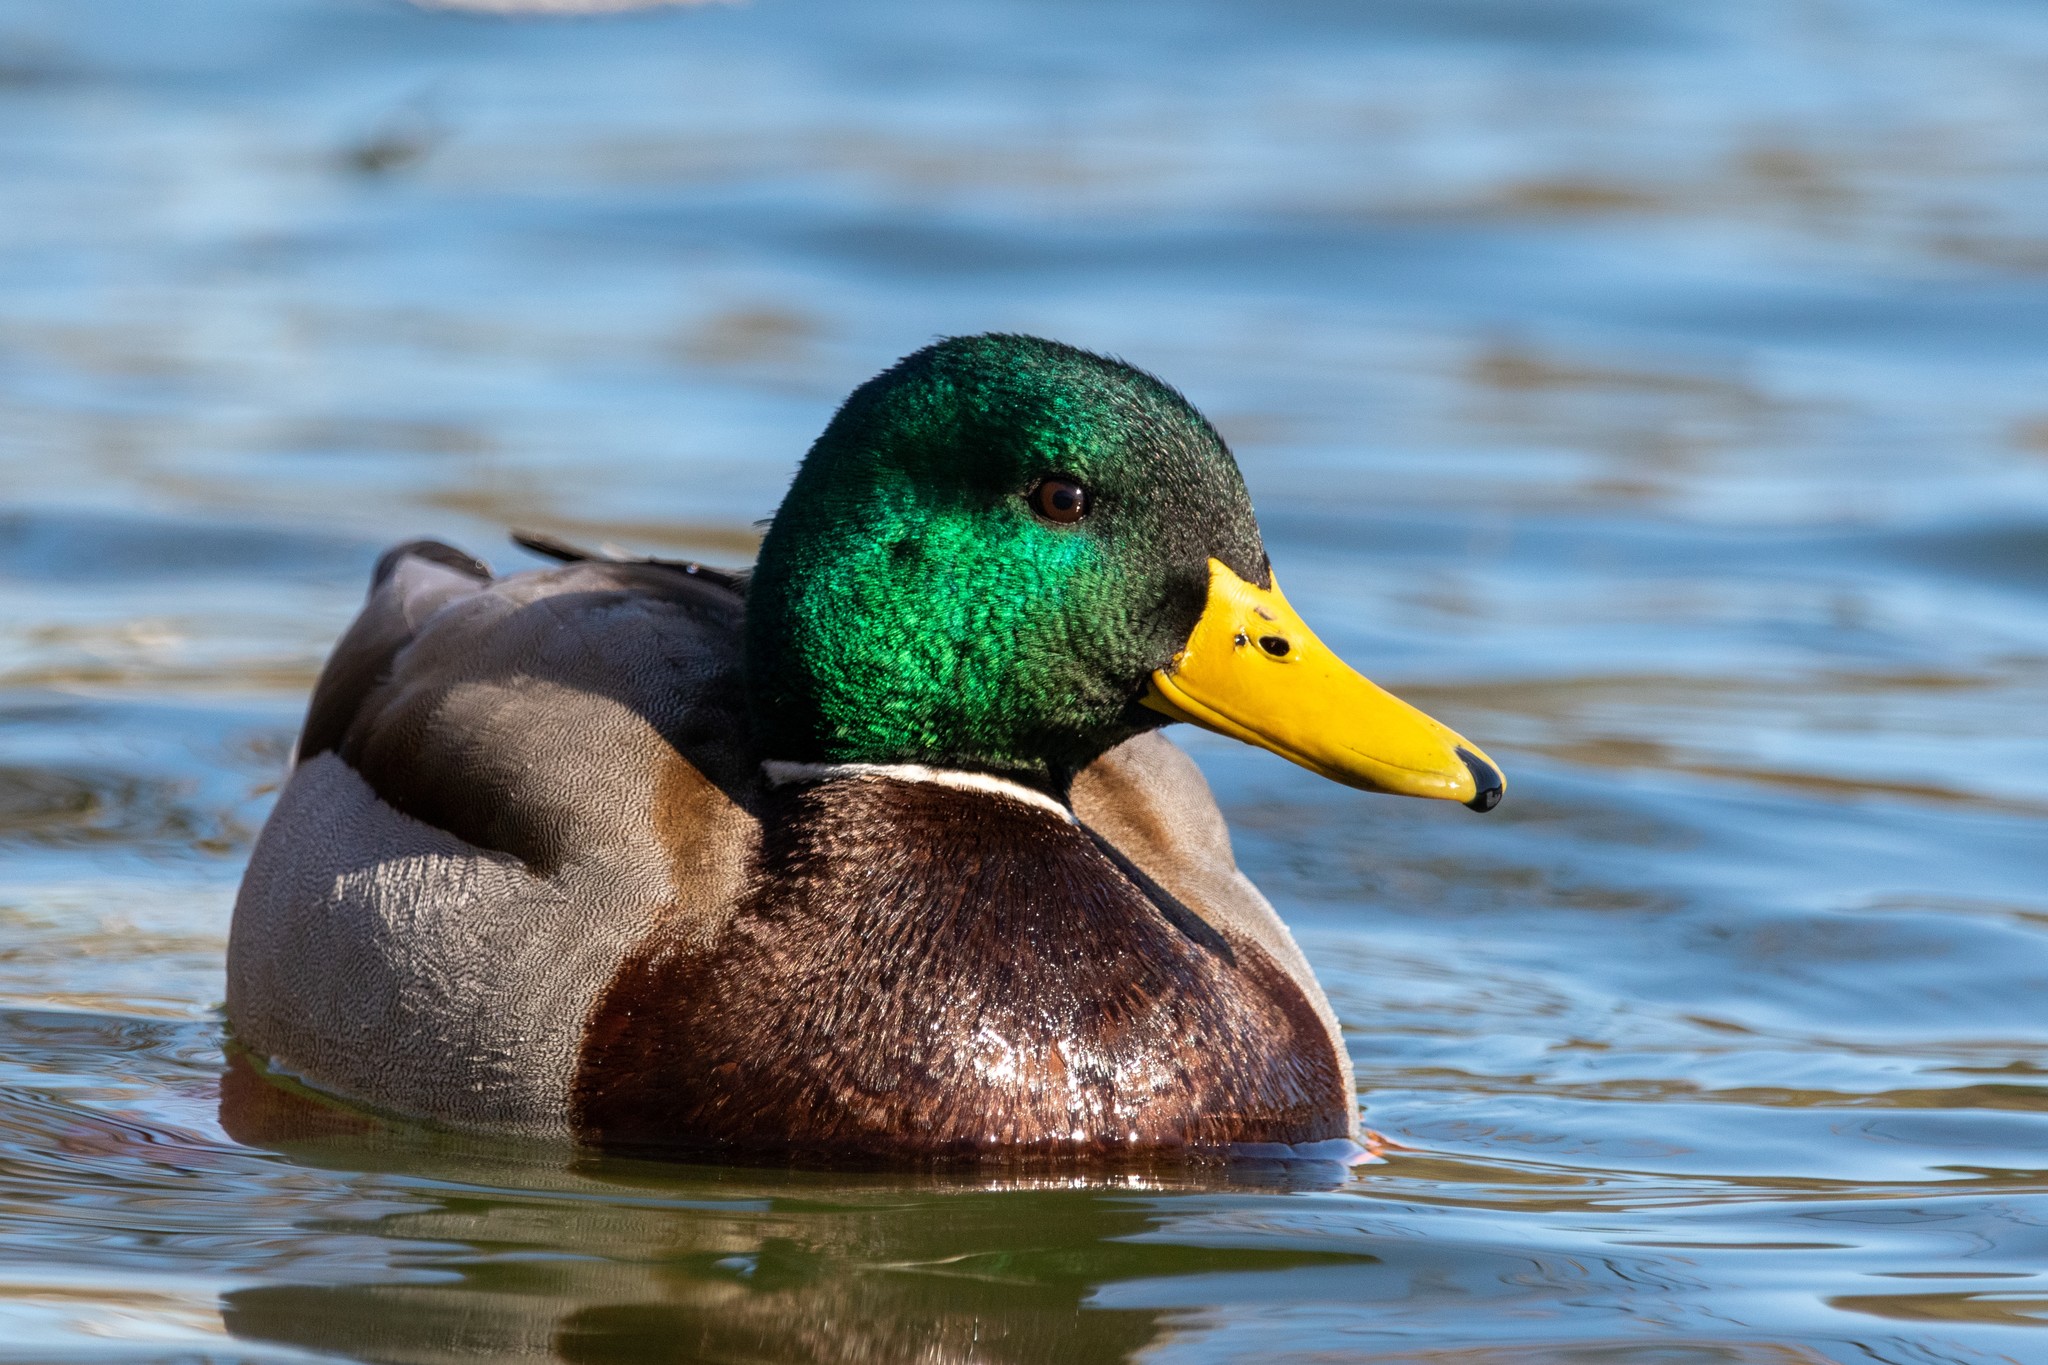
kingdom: Animalia
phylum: Chordata
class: Aves
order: Anseriformes
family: Anatidae
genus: Anas
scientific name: Anas platyrhynchos
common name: Mallard
